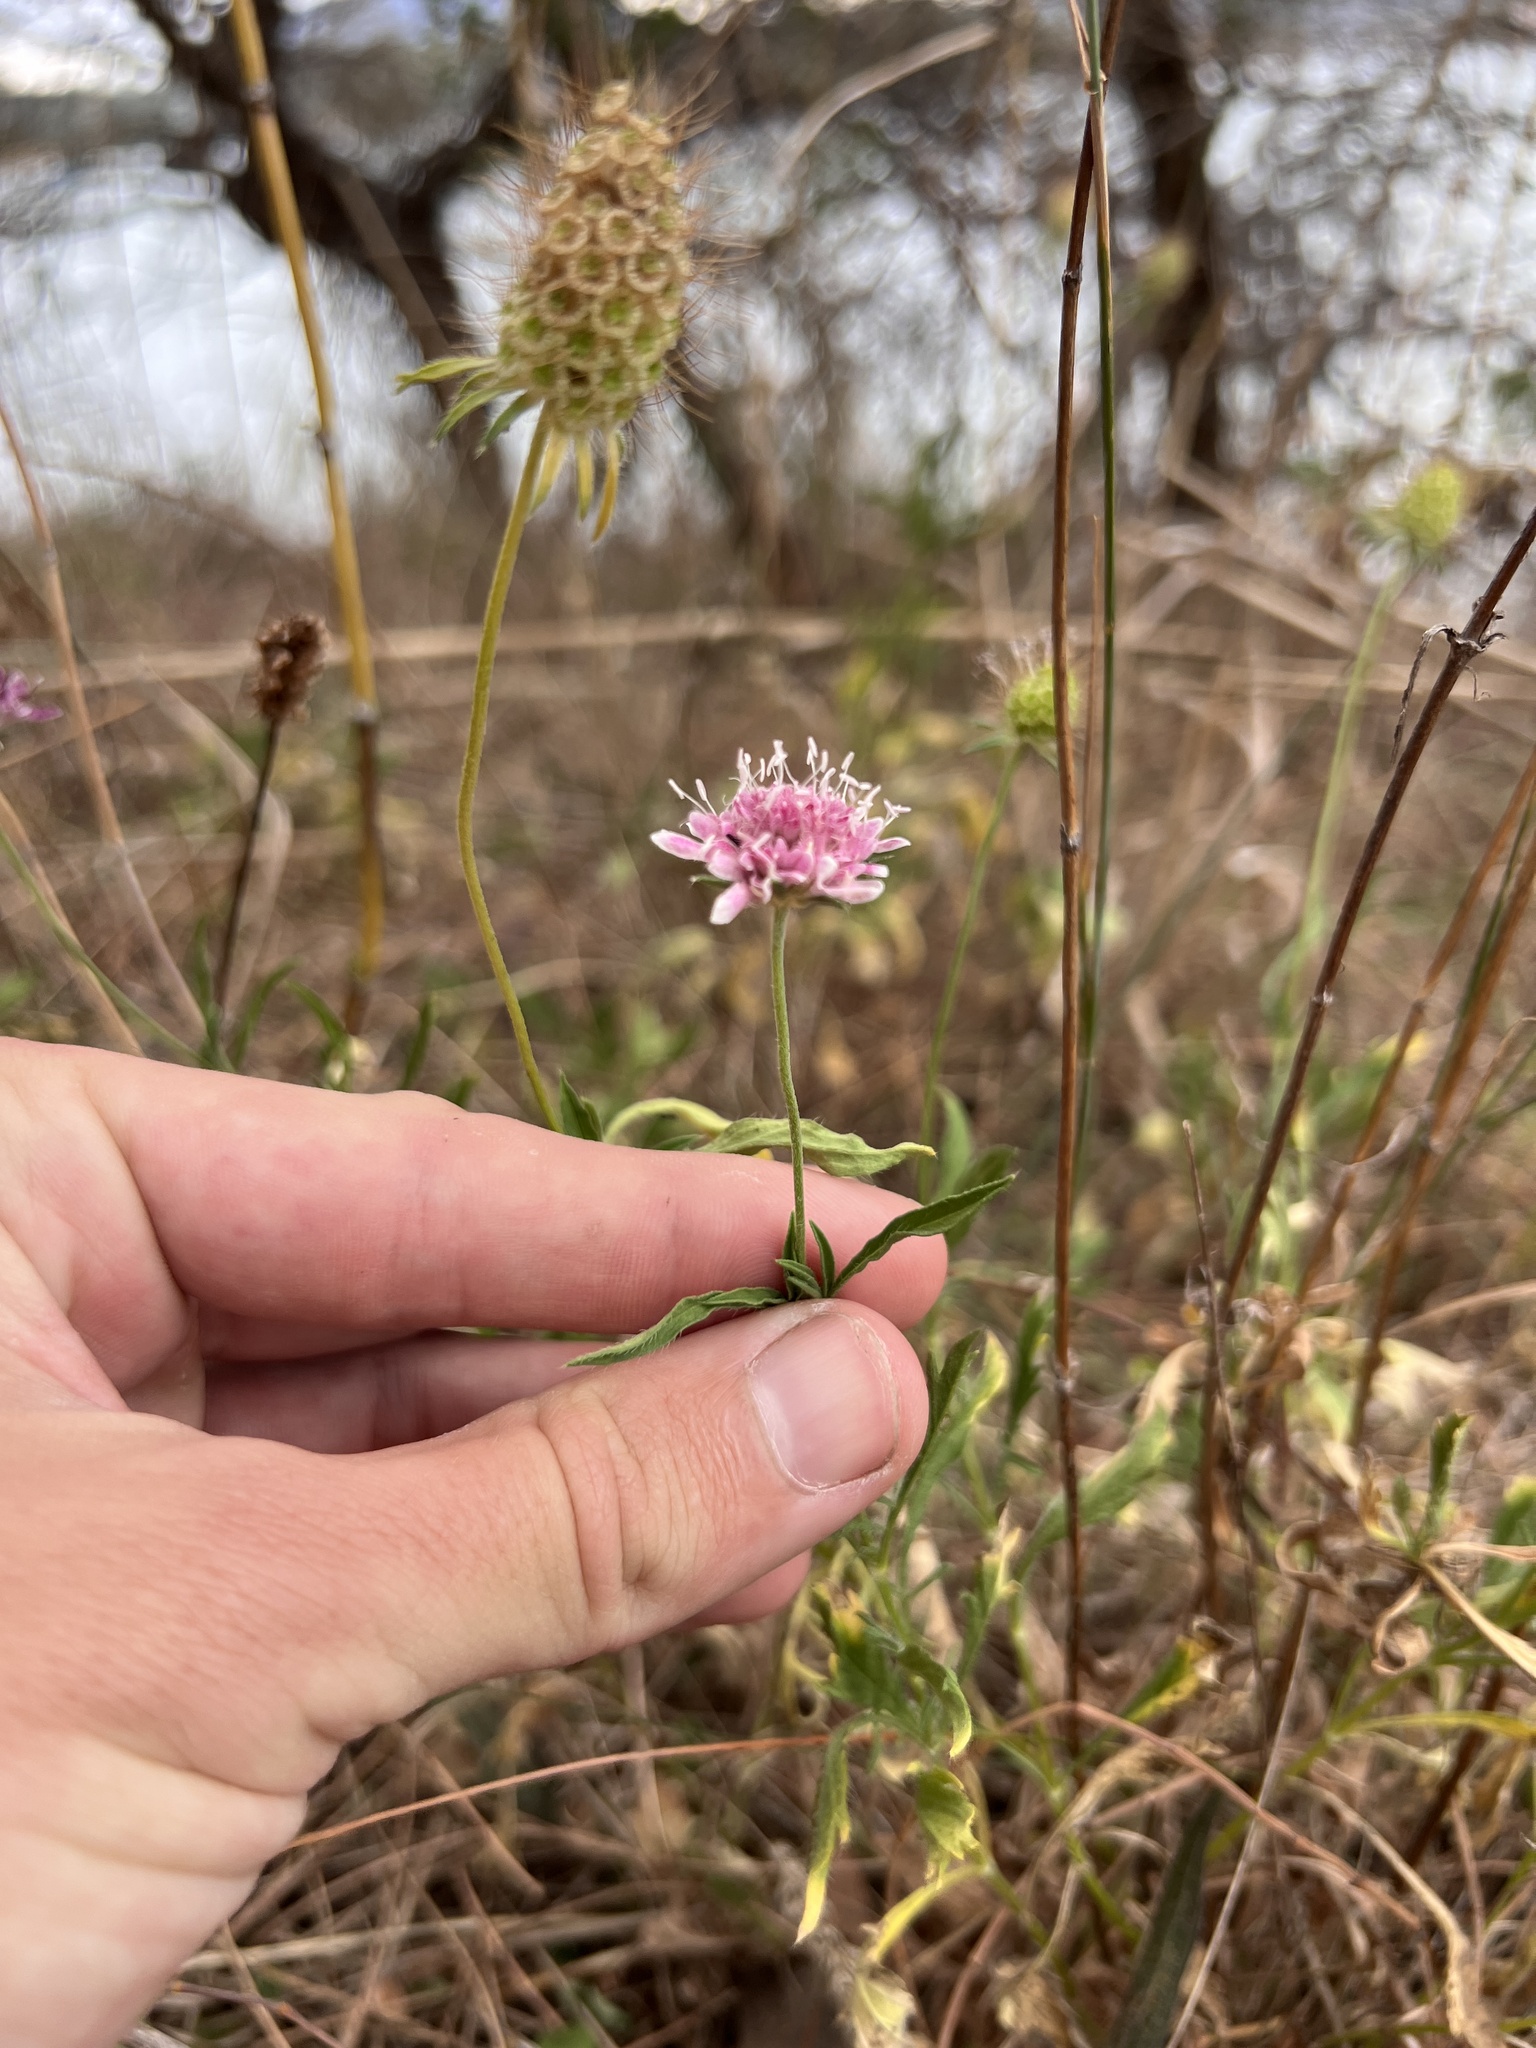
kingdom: Plantae
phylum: Tracheophyta
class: Magnoliopsida
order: Dipsacales
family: Caprifoliaceae
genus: Sixalix
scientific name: Sixalix atropurpurea
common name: Sweet scabious
